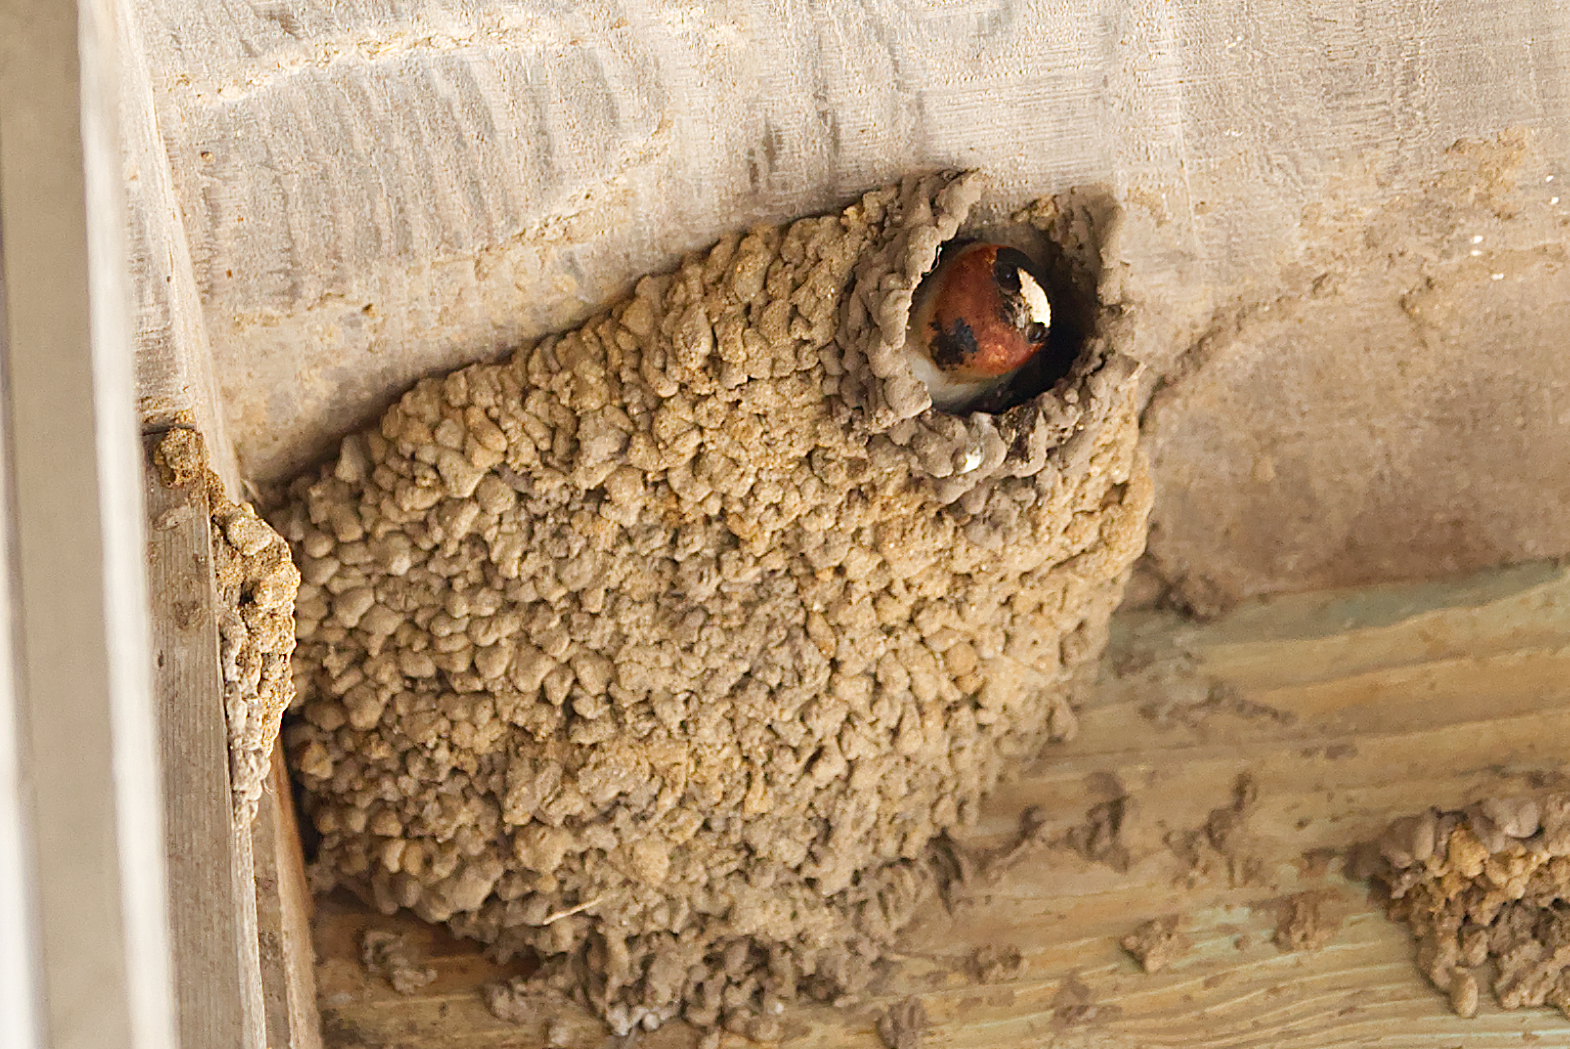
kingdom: Animalia
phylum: Chordata
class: Aves
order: Passeriformes
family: Hirundinidae
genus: Petrochelidon
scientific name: Petrochelidon pyrrhonota
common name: American cliff swallow
